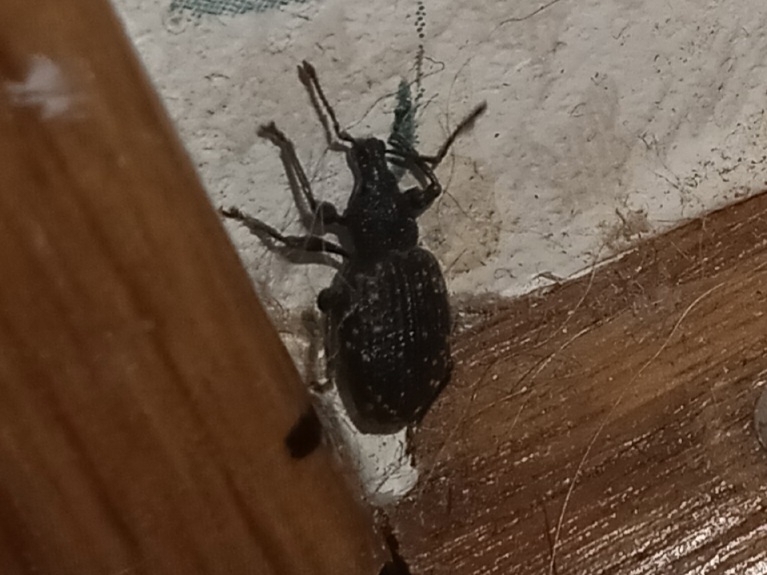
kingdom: Animalia
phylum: Arthropoda
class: Insecta
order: Coleoptera
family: Curculionidae
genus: Otiorhynchus
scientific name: Otiorhynchus sulcatus
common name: Black vine weevil
